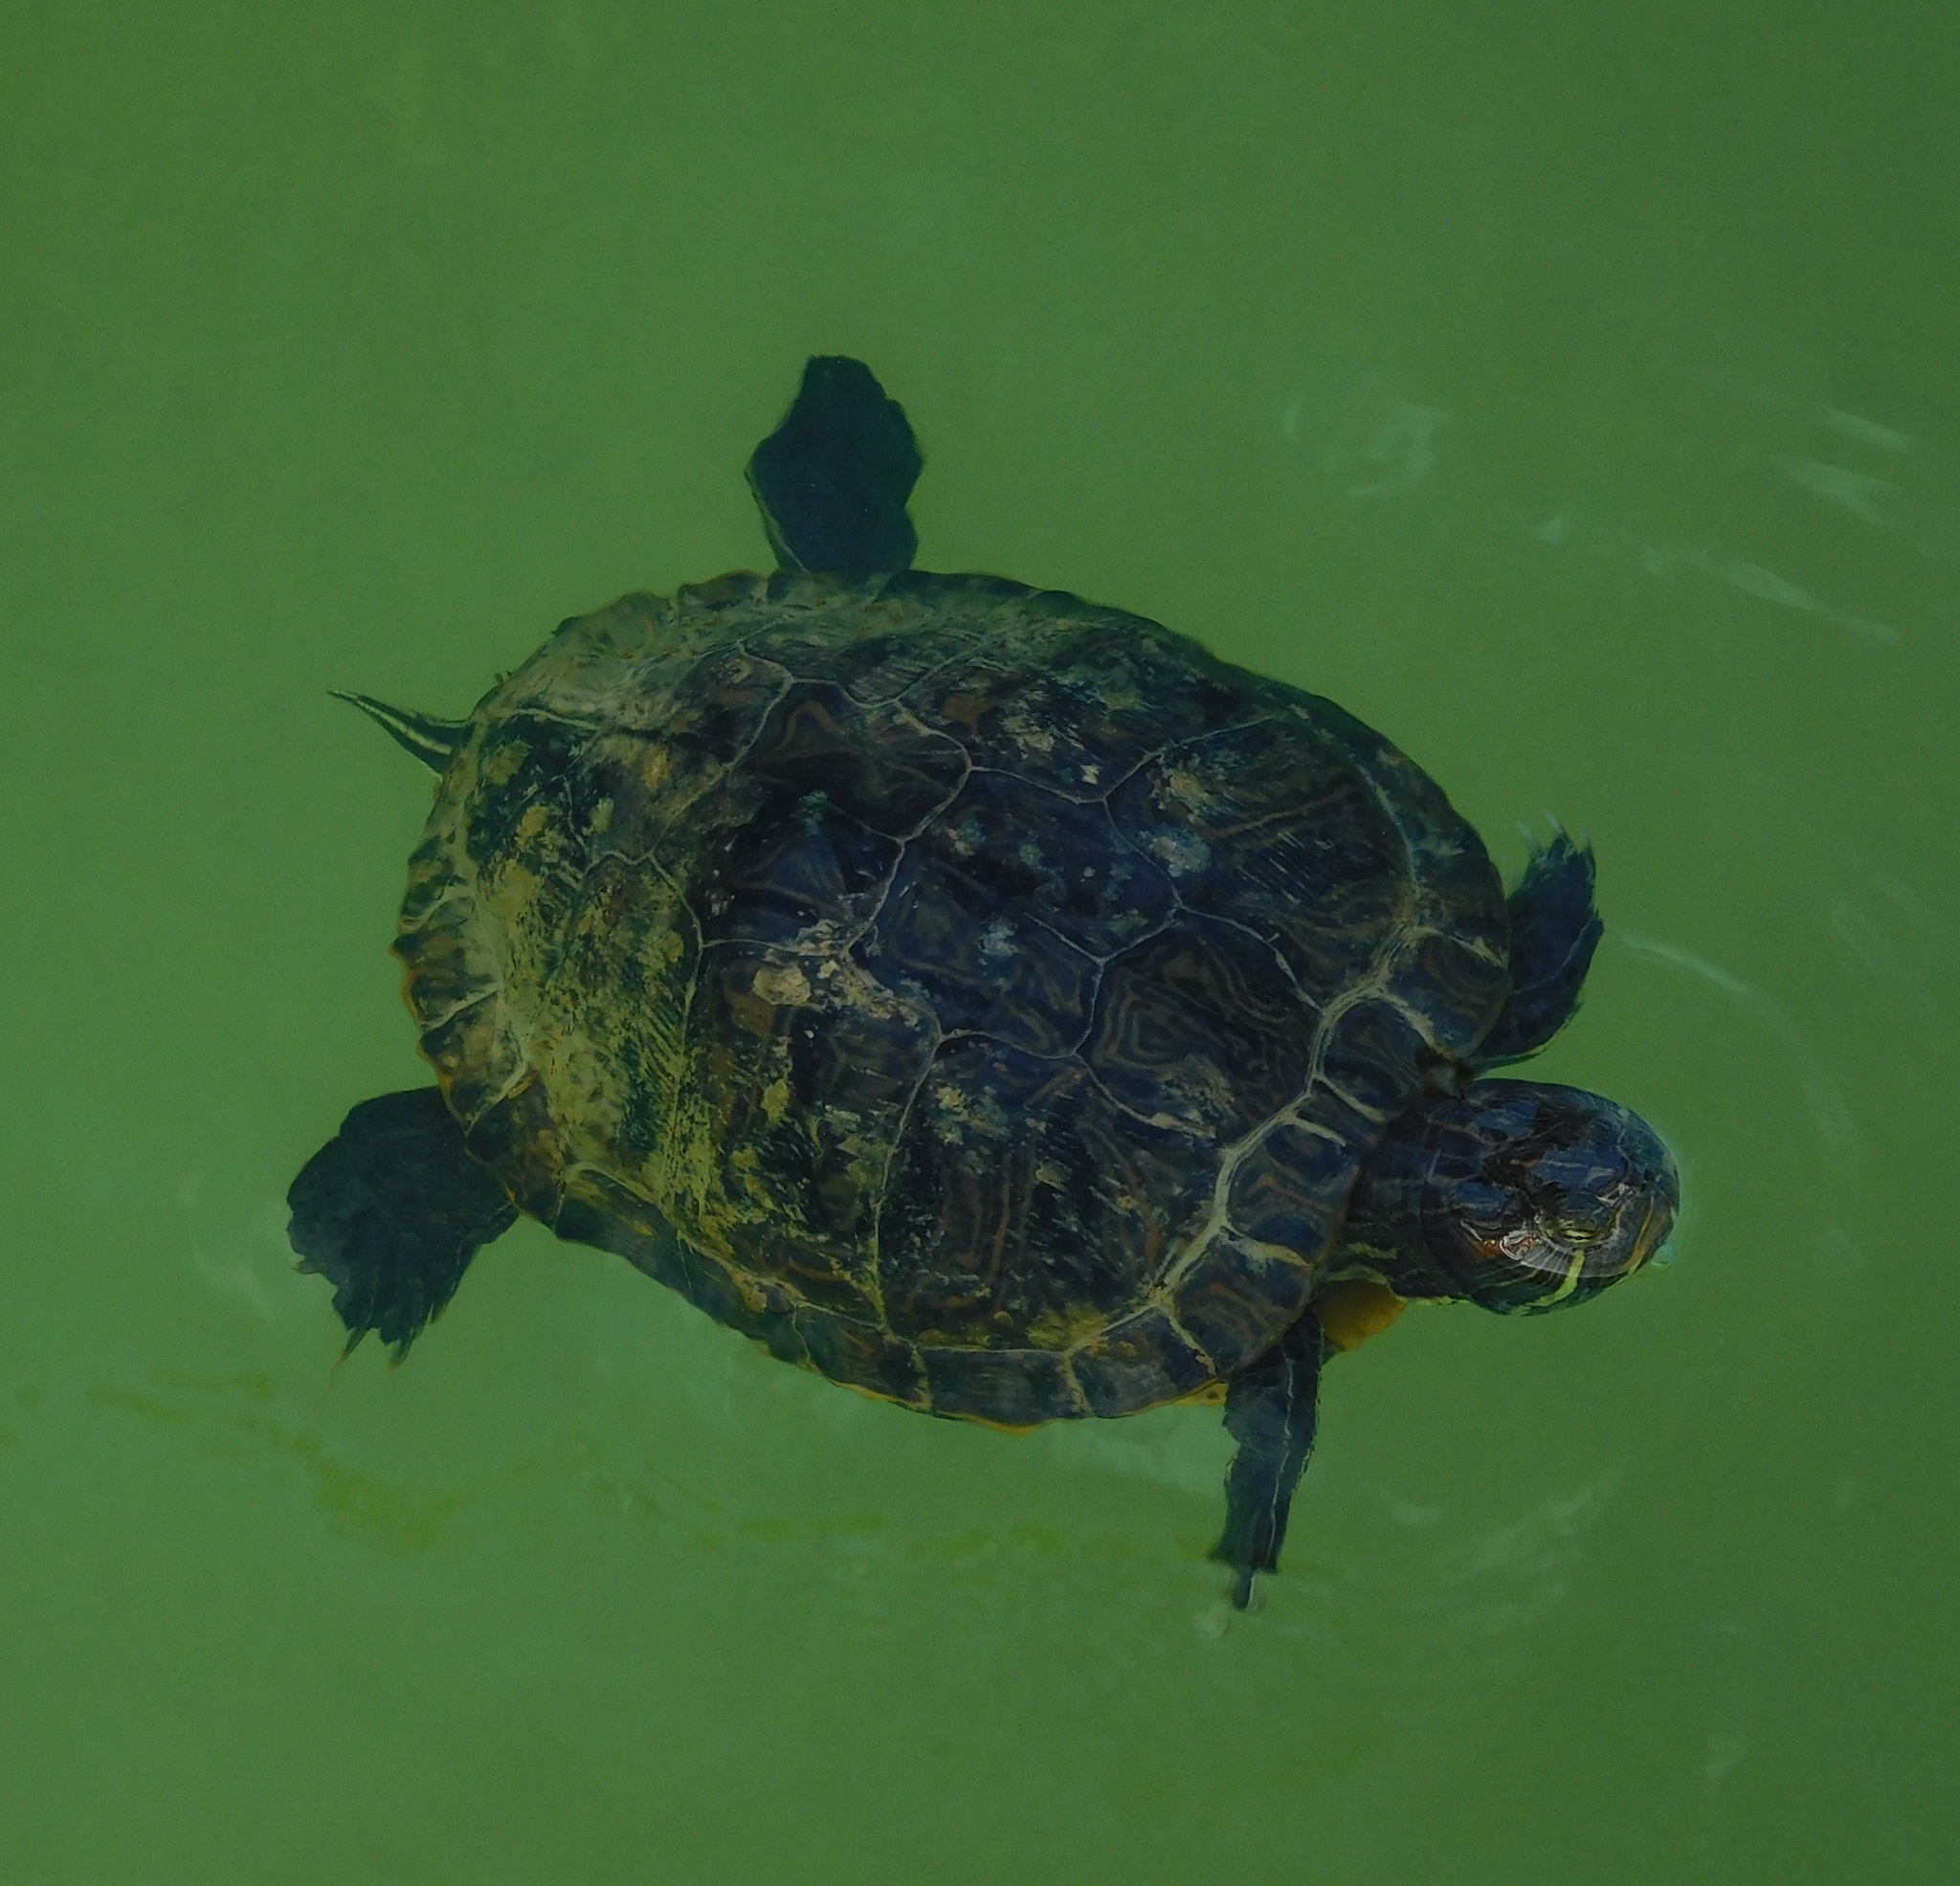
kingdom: Animalia
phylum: Chordata
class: Testudines
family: Emydidae
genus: Trachemys
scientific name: Trachemys scripta
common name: Slider
